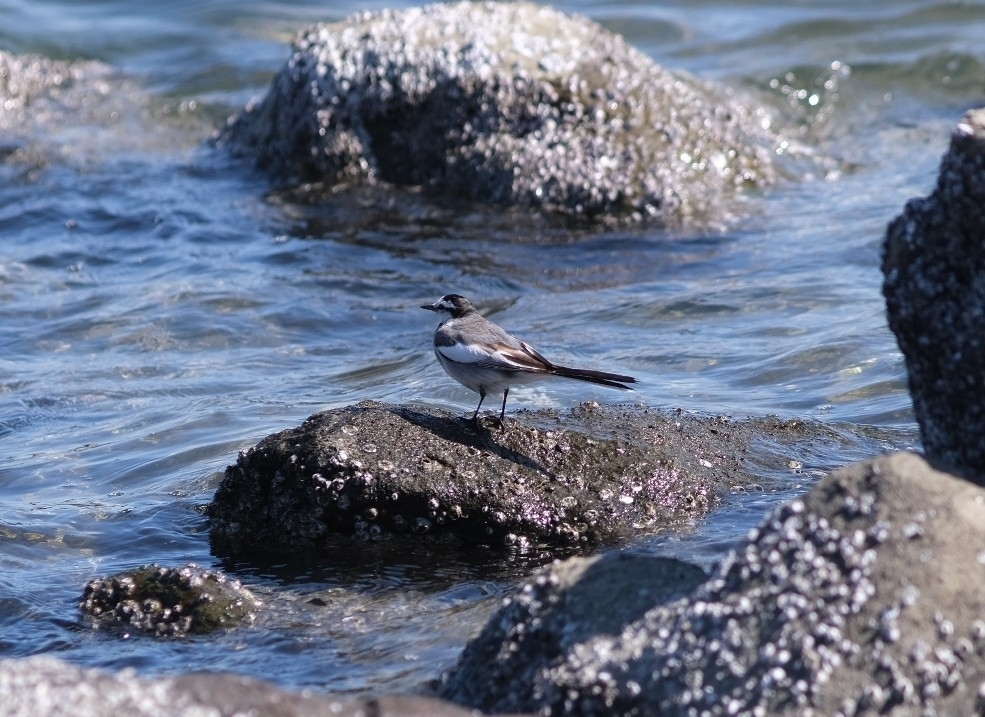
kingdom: Animalia
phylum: Chordata
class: Aves
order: Passeriformes
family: Motacillidae
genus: Motacilla
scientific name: Motacilla alba
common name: White wagtail
